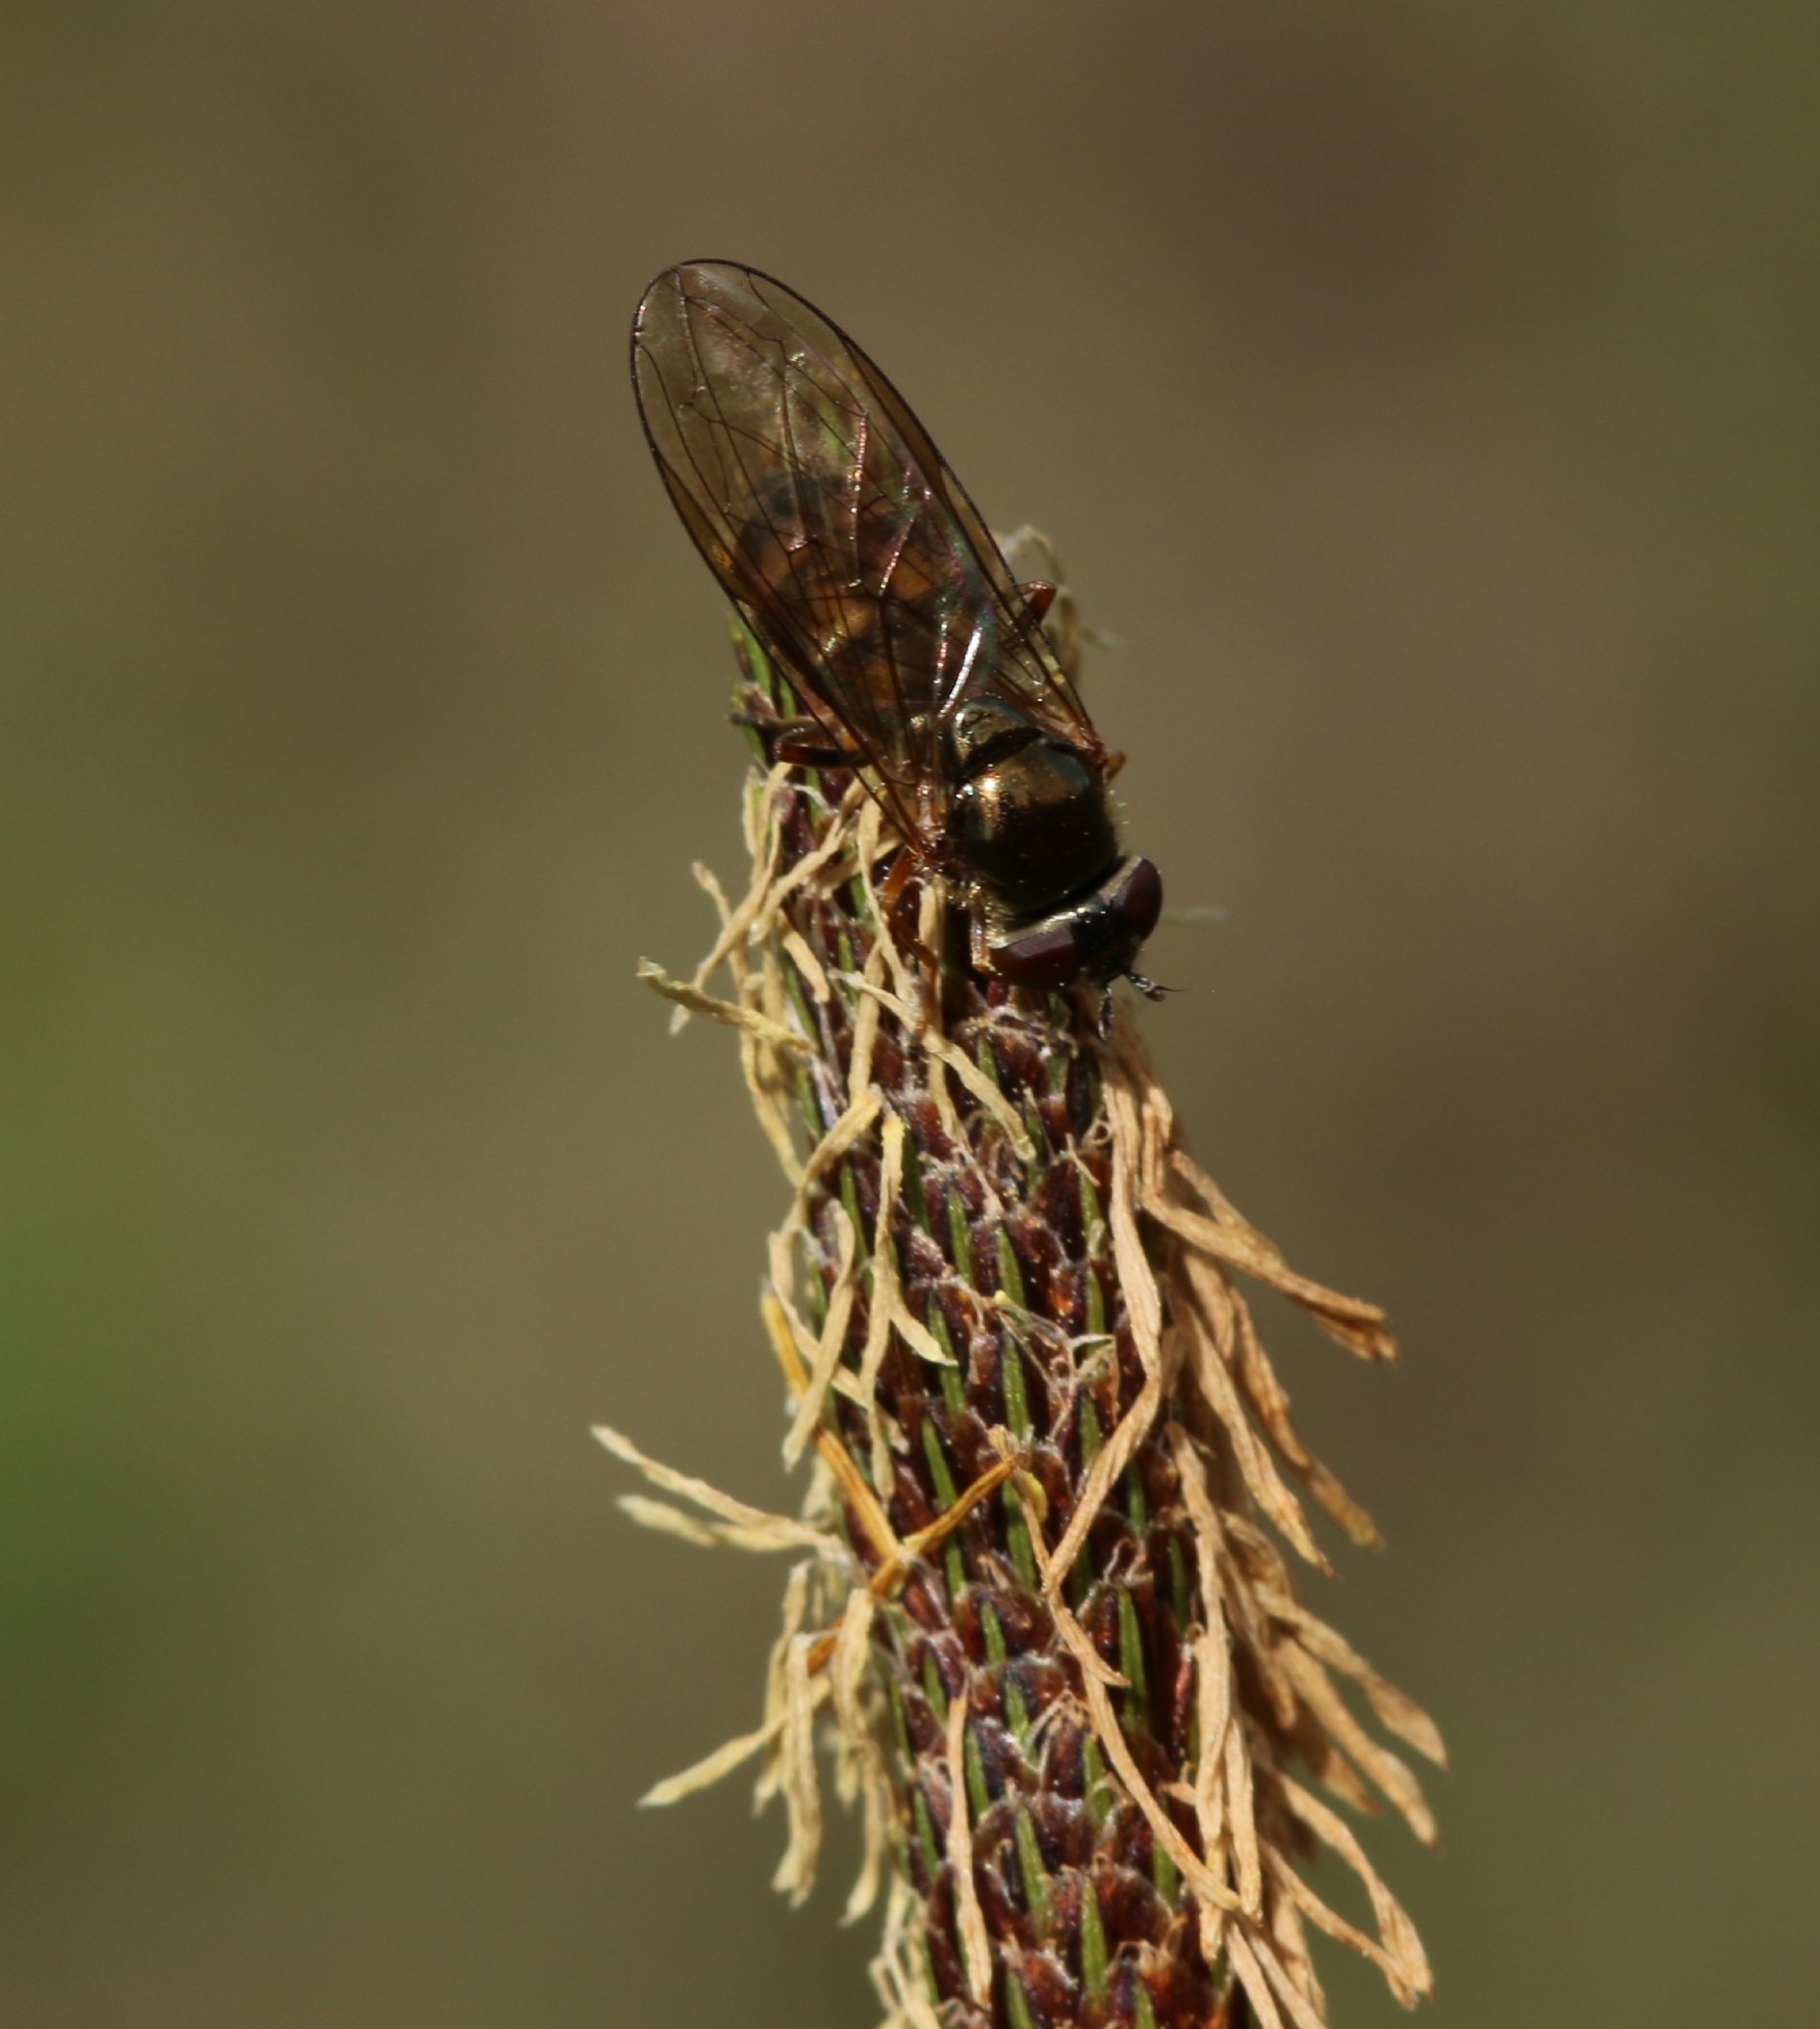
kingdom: Animalia
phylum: Arthropoda
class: Insecta
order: Diptera
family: Syrphidae
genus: Melanostoma
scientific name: Melanostoma
